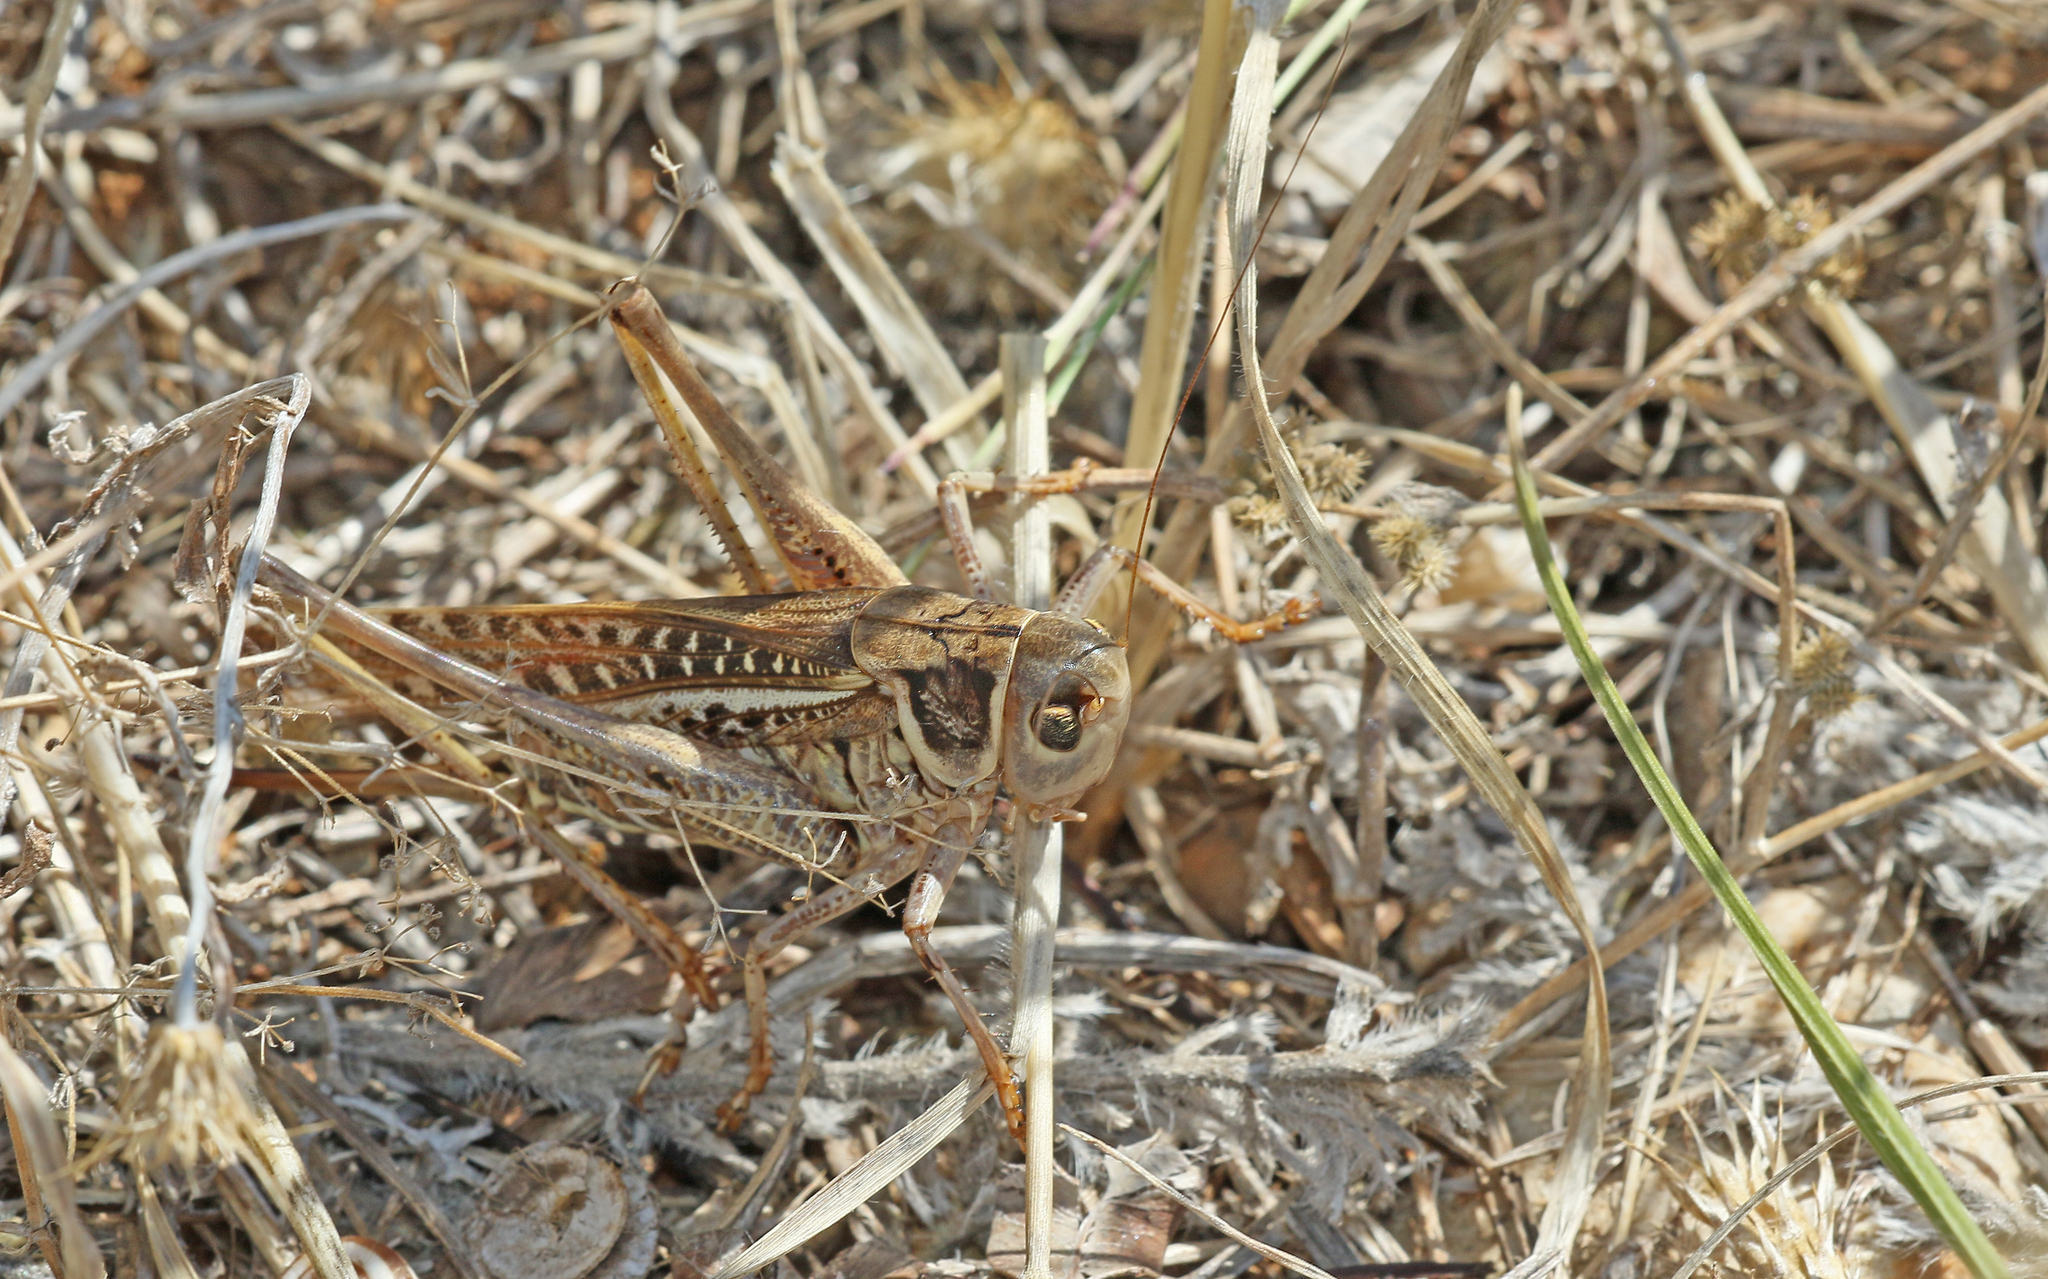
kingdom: Animalia
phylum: Arthropoda
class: Insecta
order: Orthoptera
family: Tettigoniidae
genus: Decticus
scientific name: Decticus albifrons
